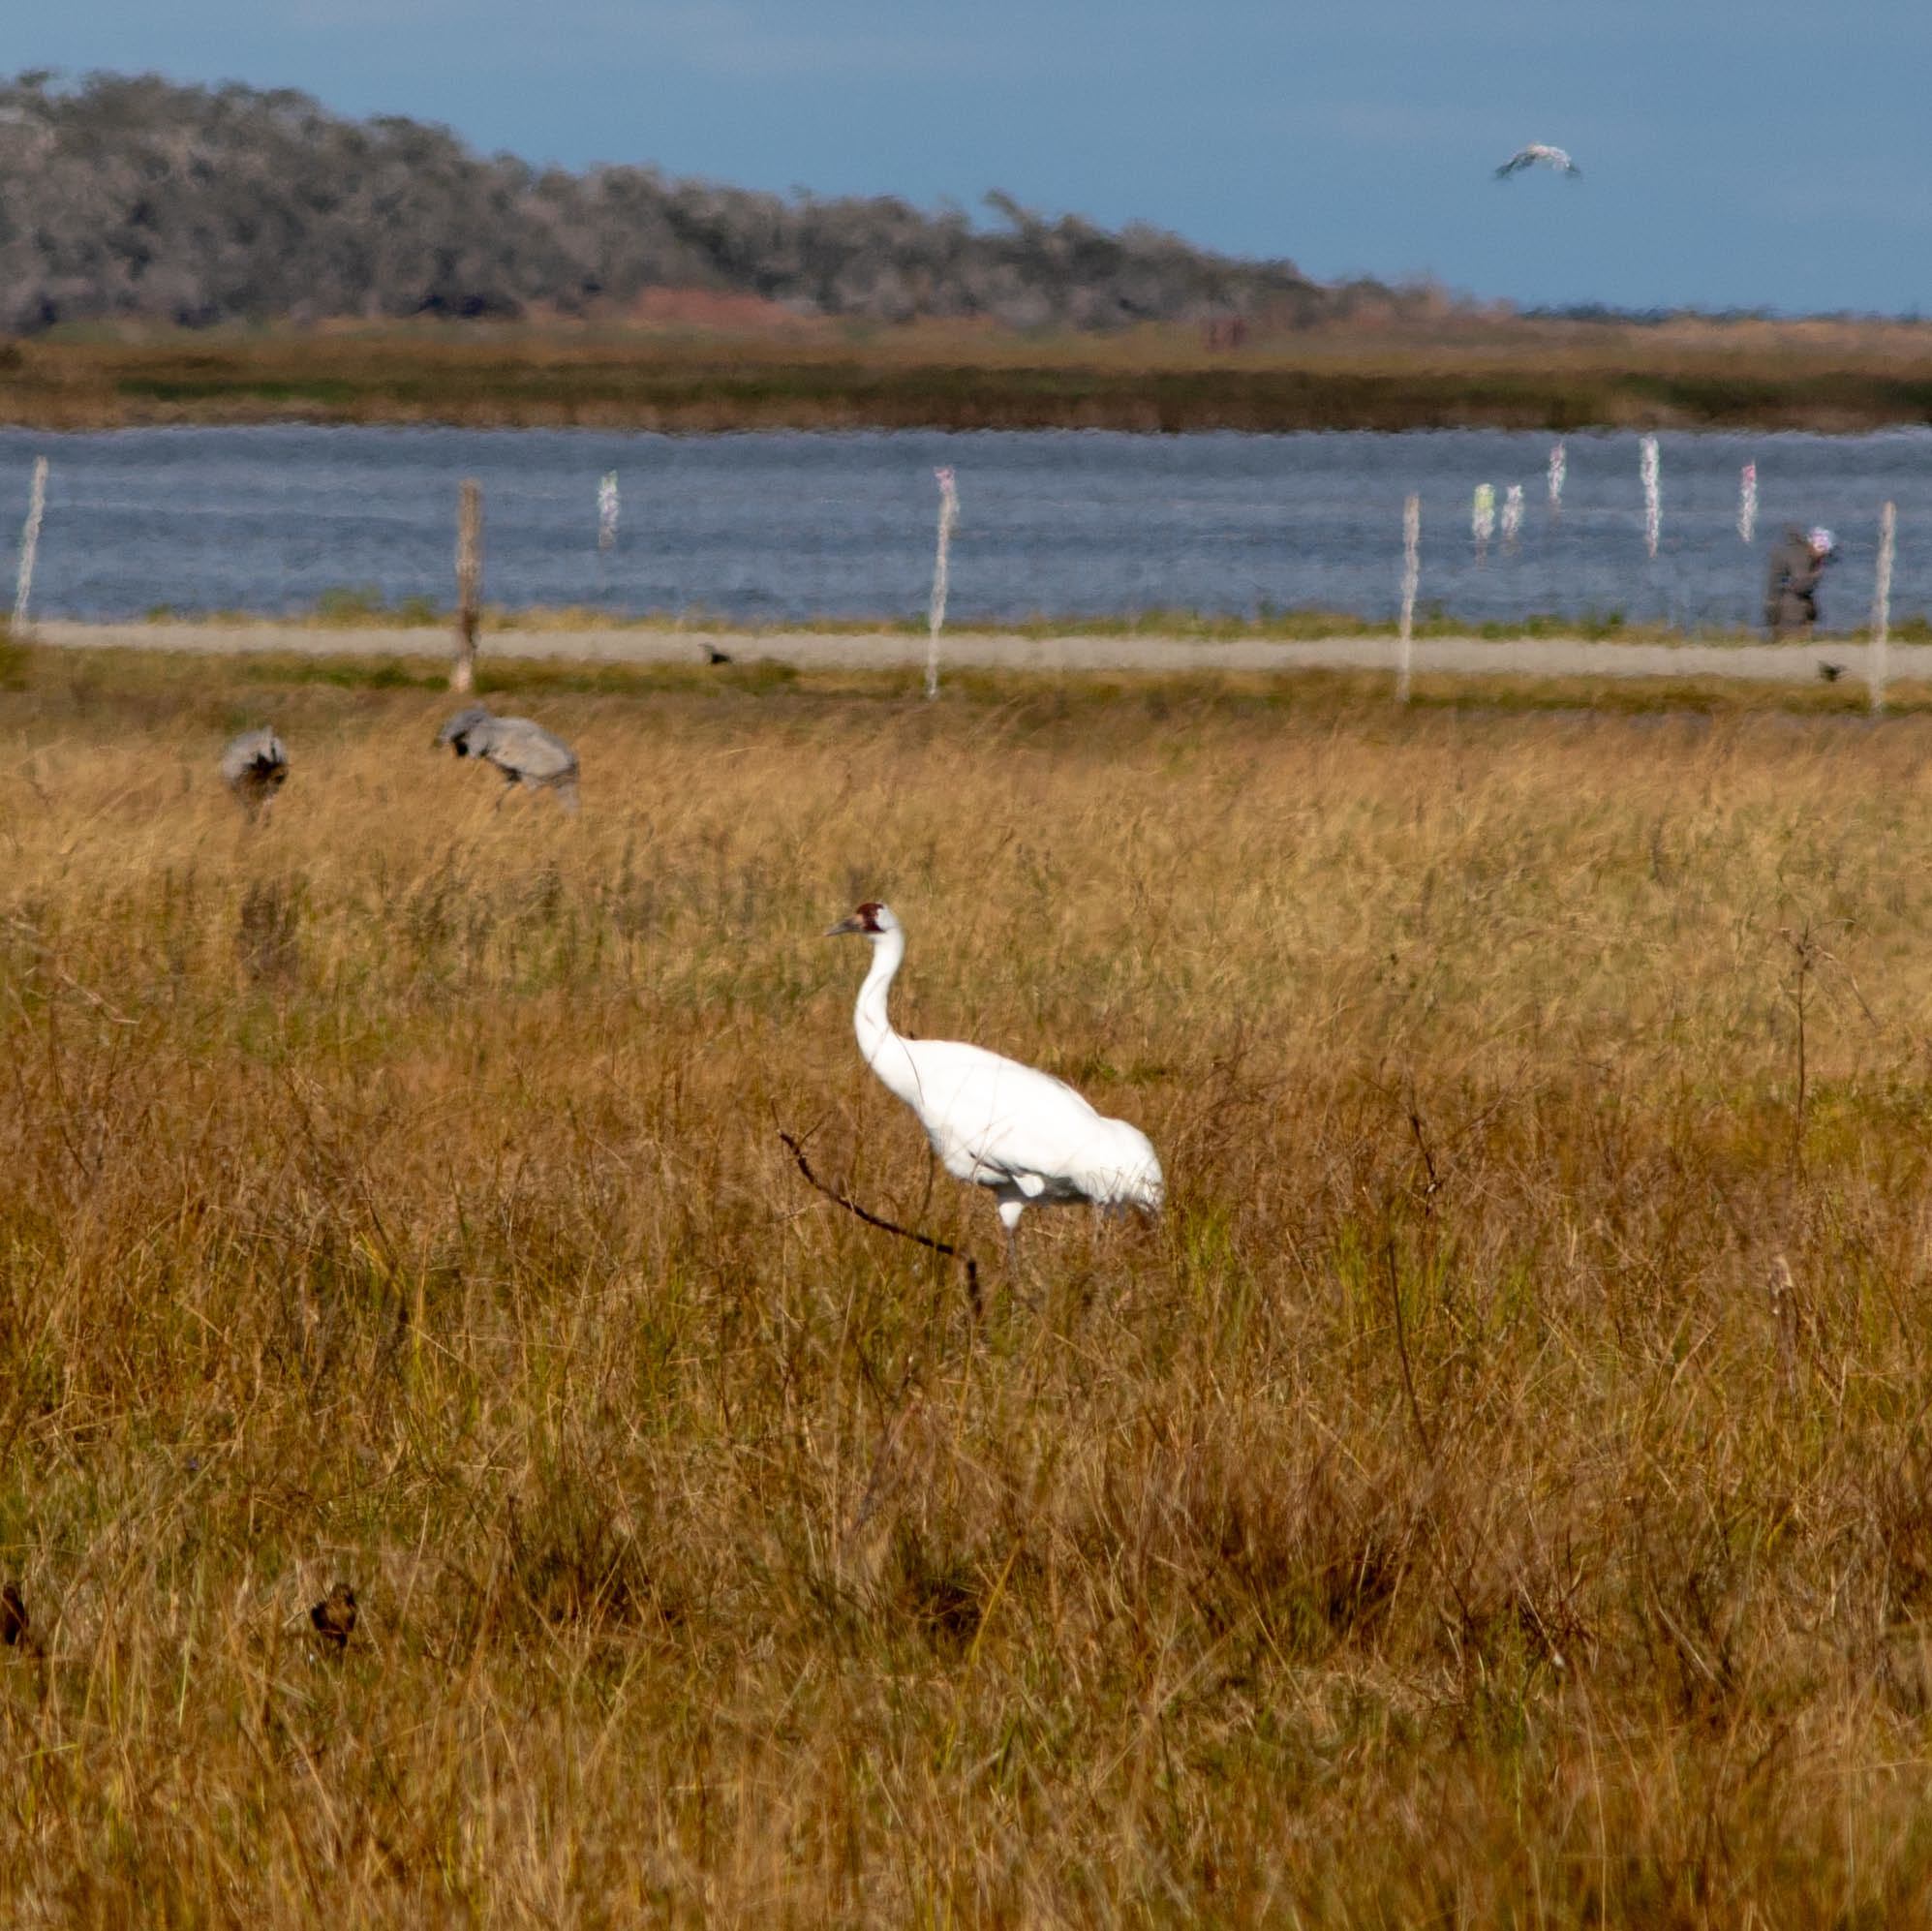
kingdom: Animalia
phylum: Chordata
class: Aves
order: Gruiformes
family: Gruidae
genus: Grus
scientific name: Grus americana
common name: Whooping crane
